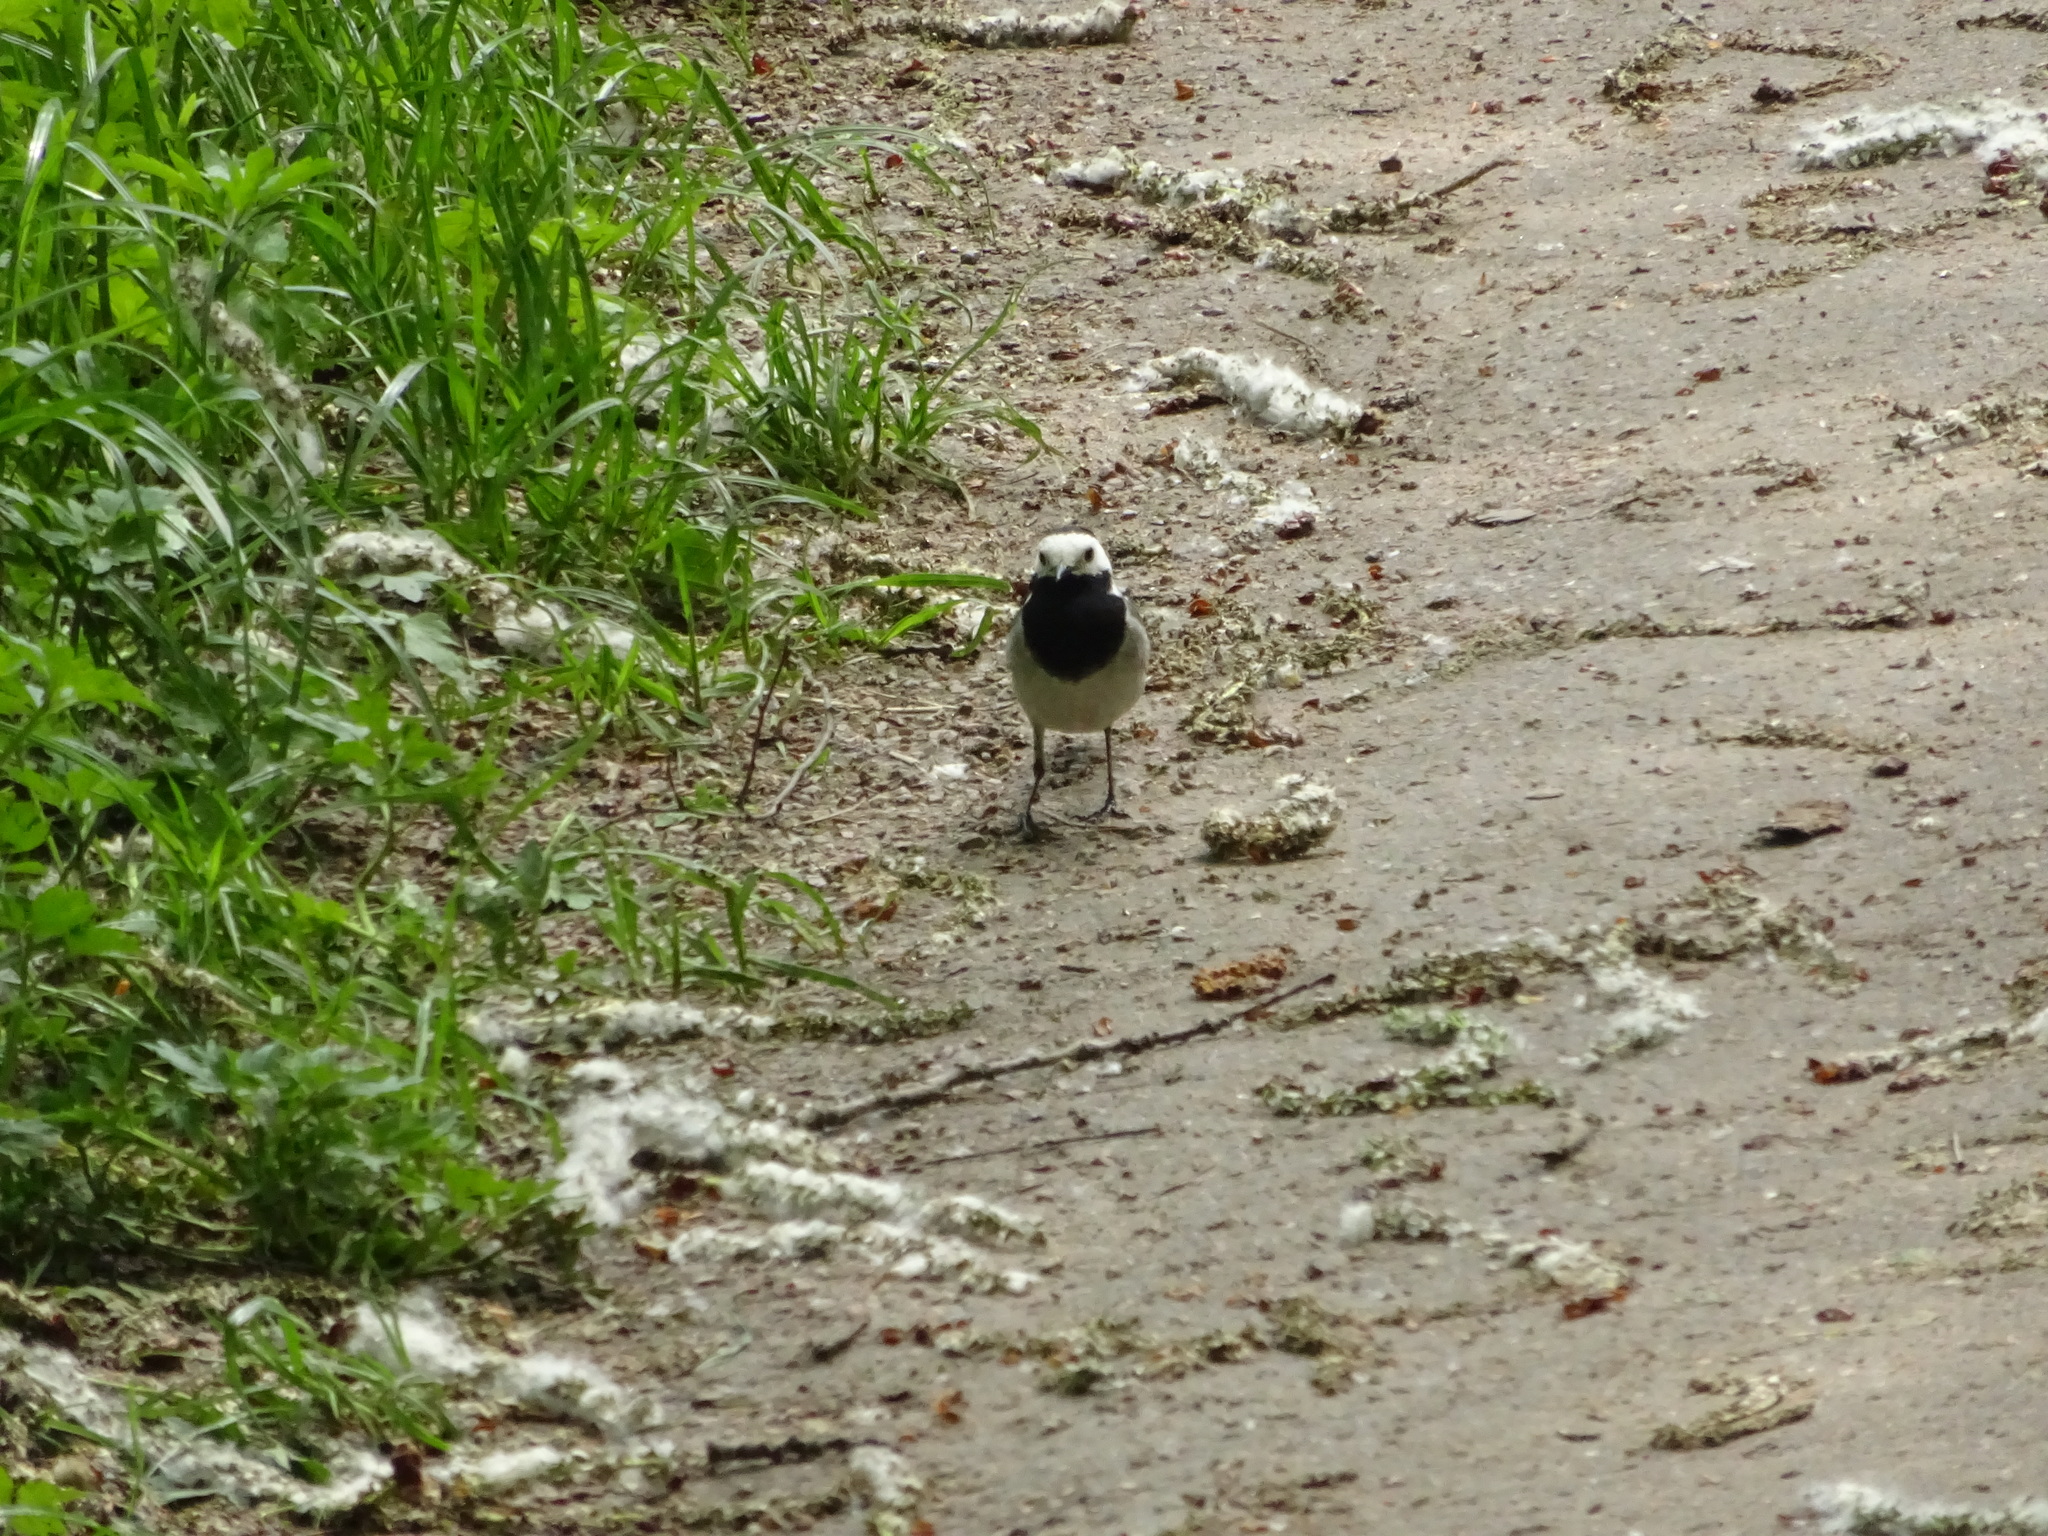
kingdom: Animalia
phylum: Chordata
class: Aves
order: Passeriformes
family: Motacillidae
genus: Motacilla
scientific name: Motacilla alba
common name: White wagtail
